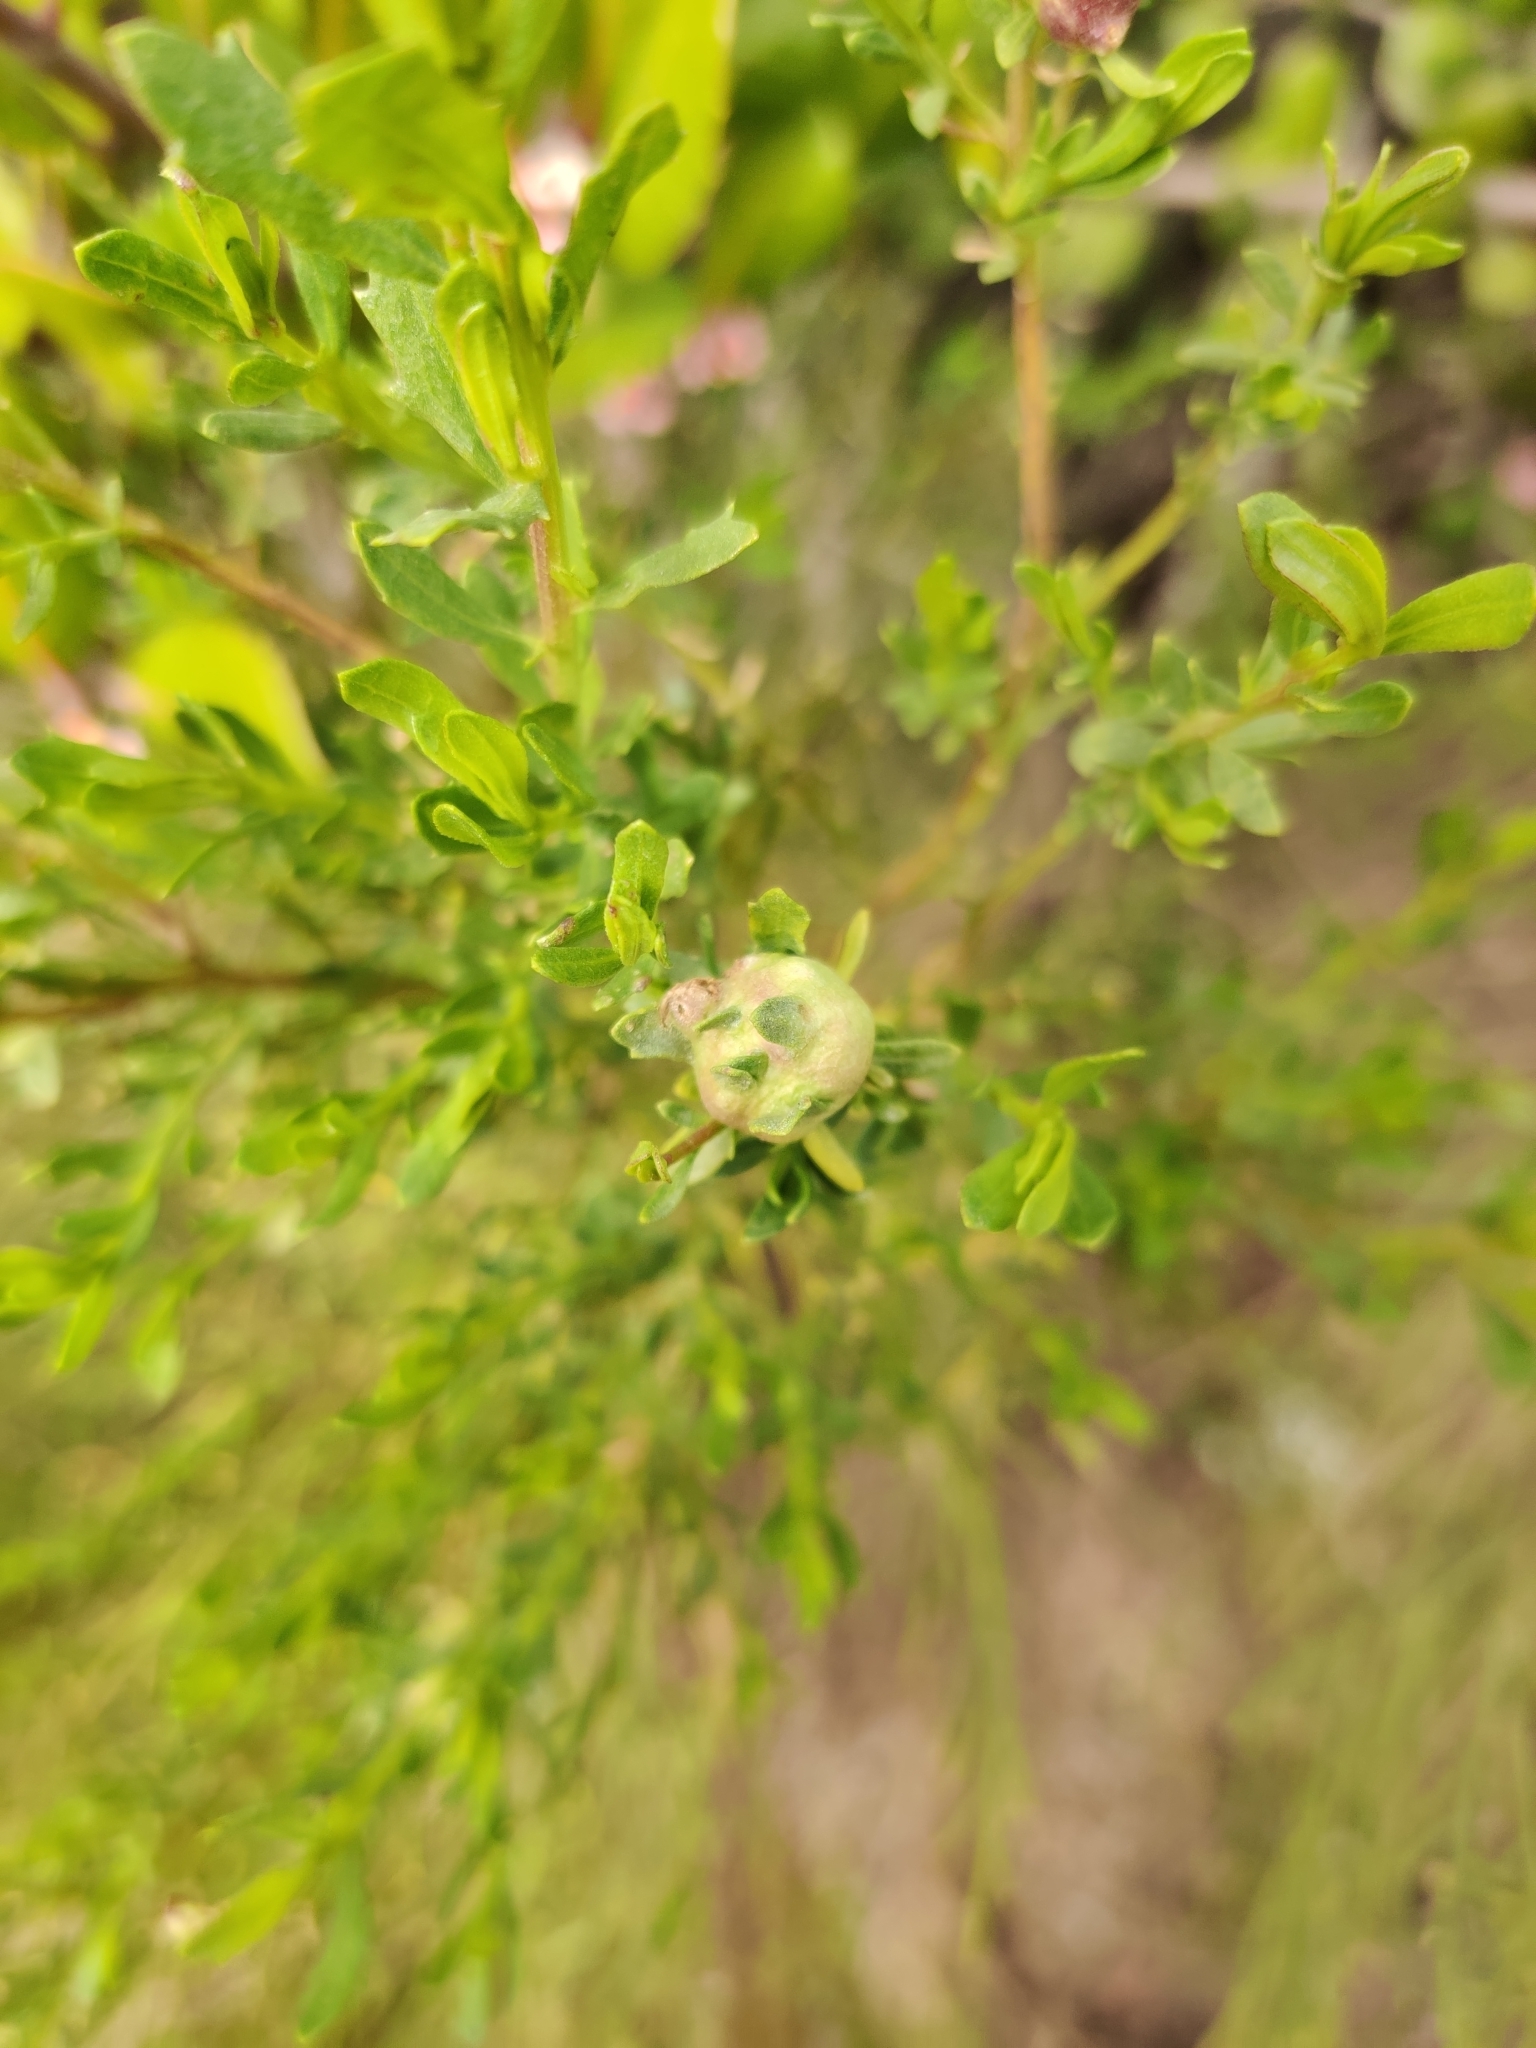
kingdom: Animalia
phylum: Arthropoda
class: Insecta
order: Diptera
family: Cecidomyiidae
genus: Rhopalomyia
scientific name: Rhopalomyia californica
